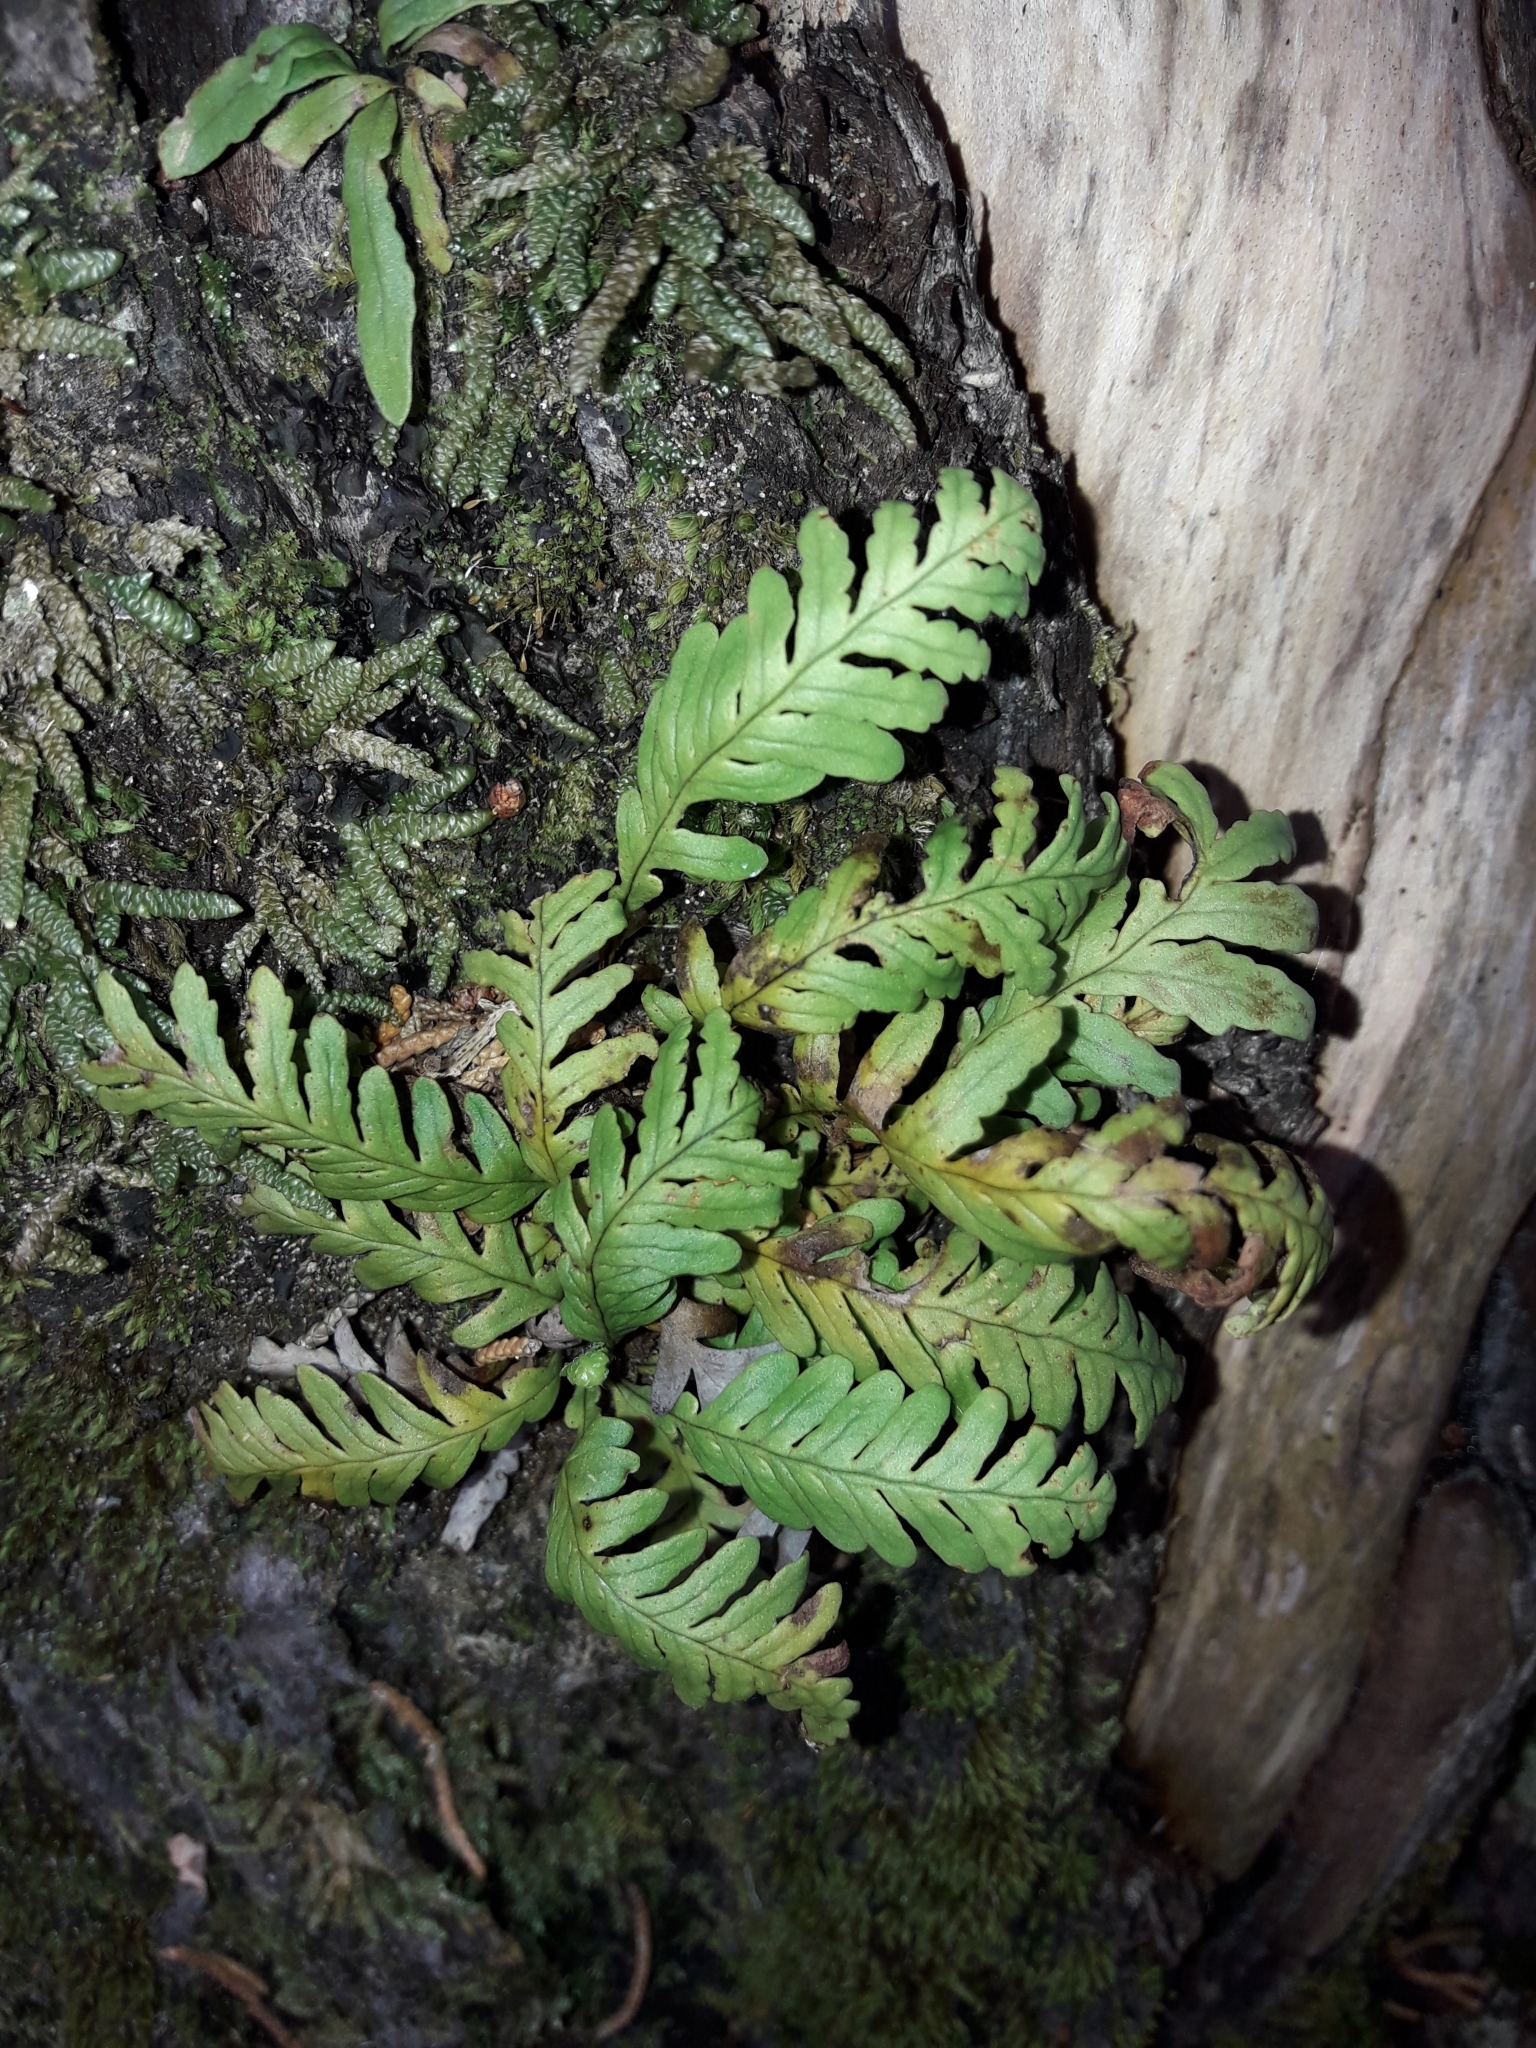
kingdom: Plantae
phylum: Tracheophyta
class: Polypodiopsida
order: Polypodiales
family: Polypodiaceae
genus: Notogrammitis
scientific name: Notogrammitis heterophylla
